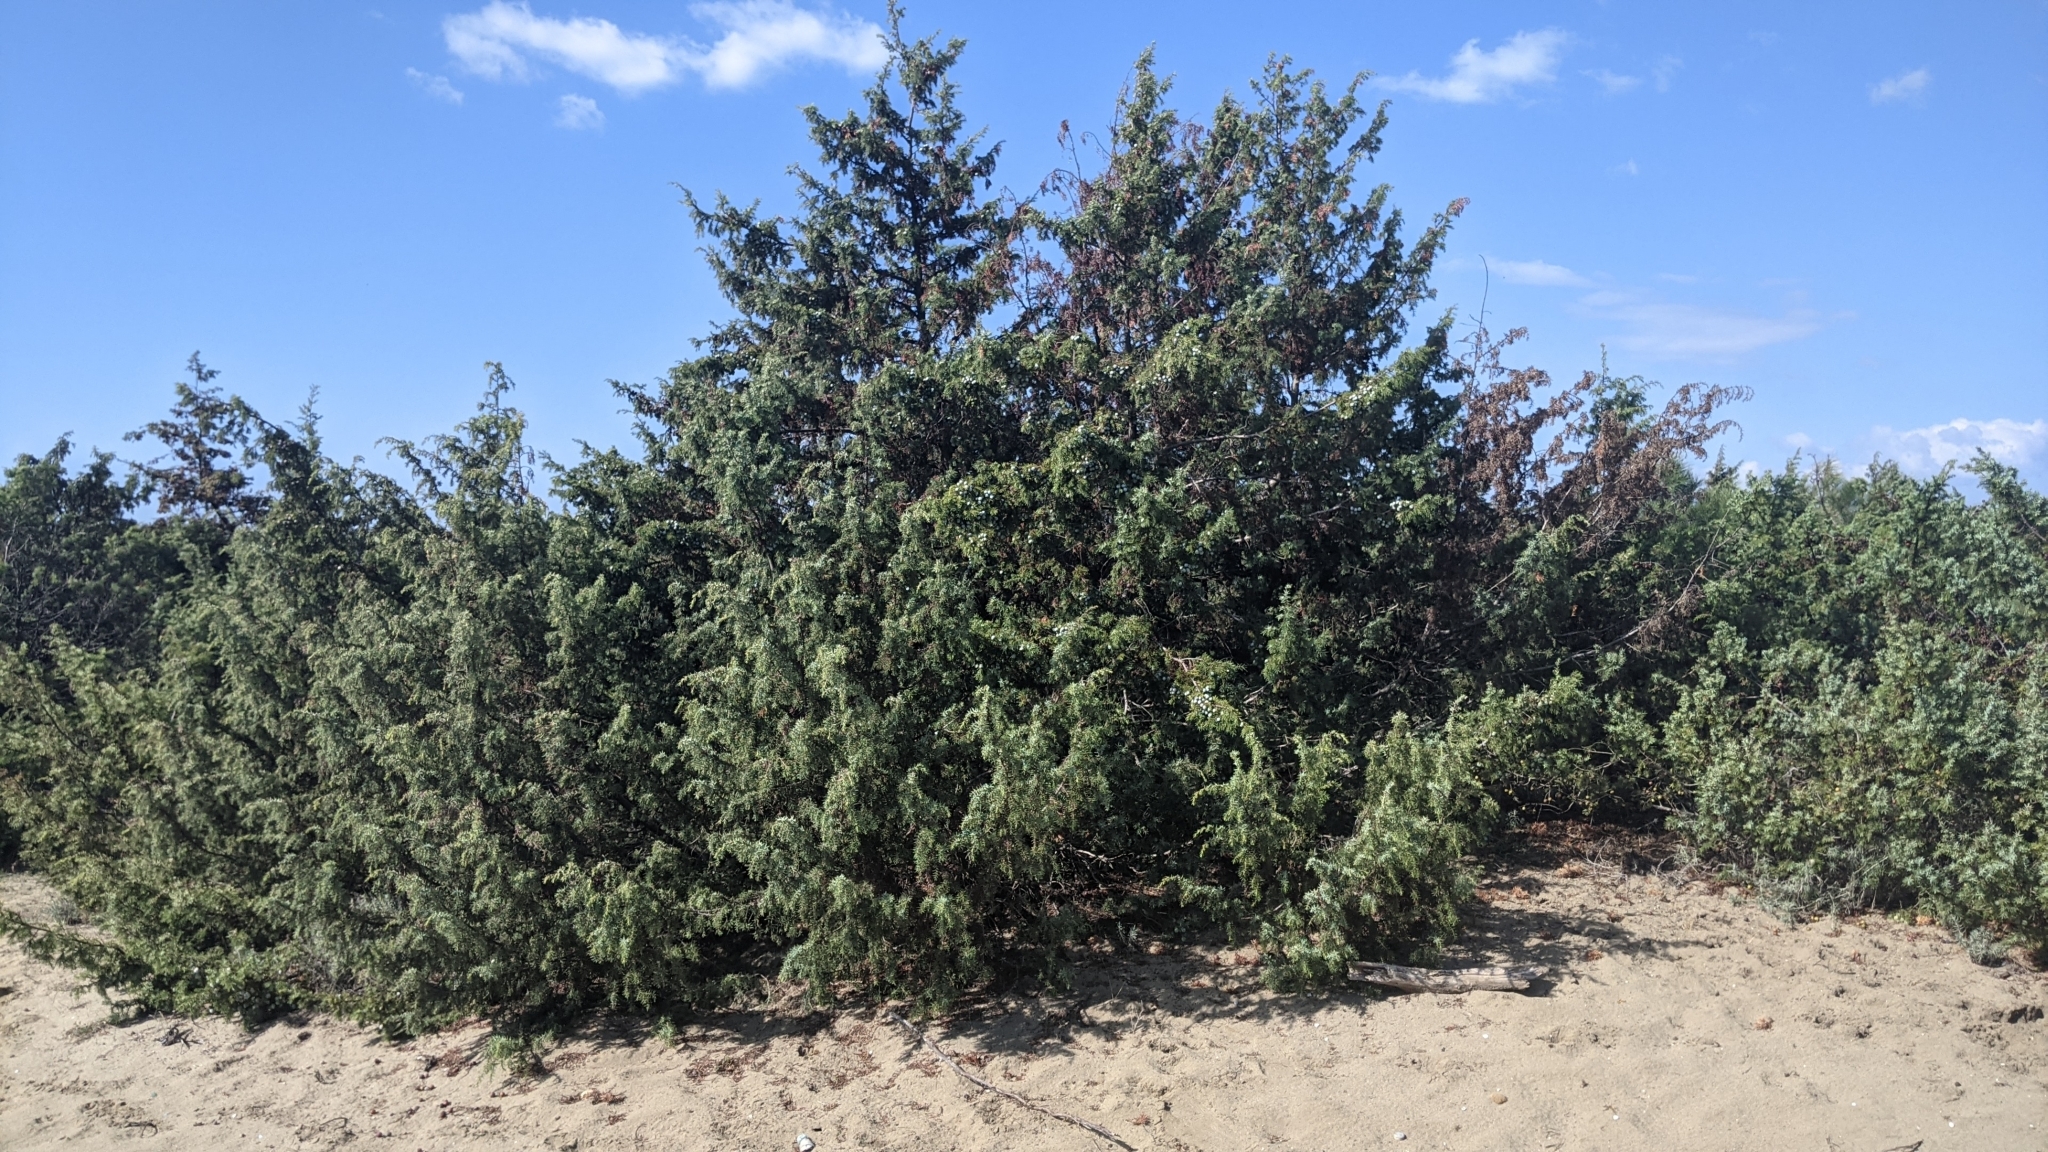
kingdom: Plantae
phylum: Tracheophyta
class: Pinopsida
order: Pinales
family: Cupressaceae
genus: Juniperus
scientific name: Juniperus communis
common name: Common juniper
